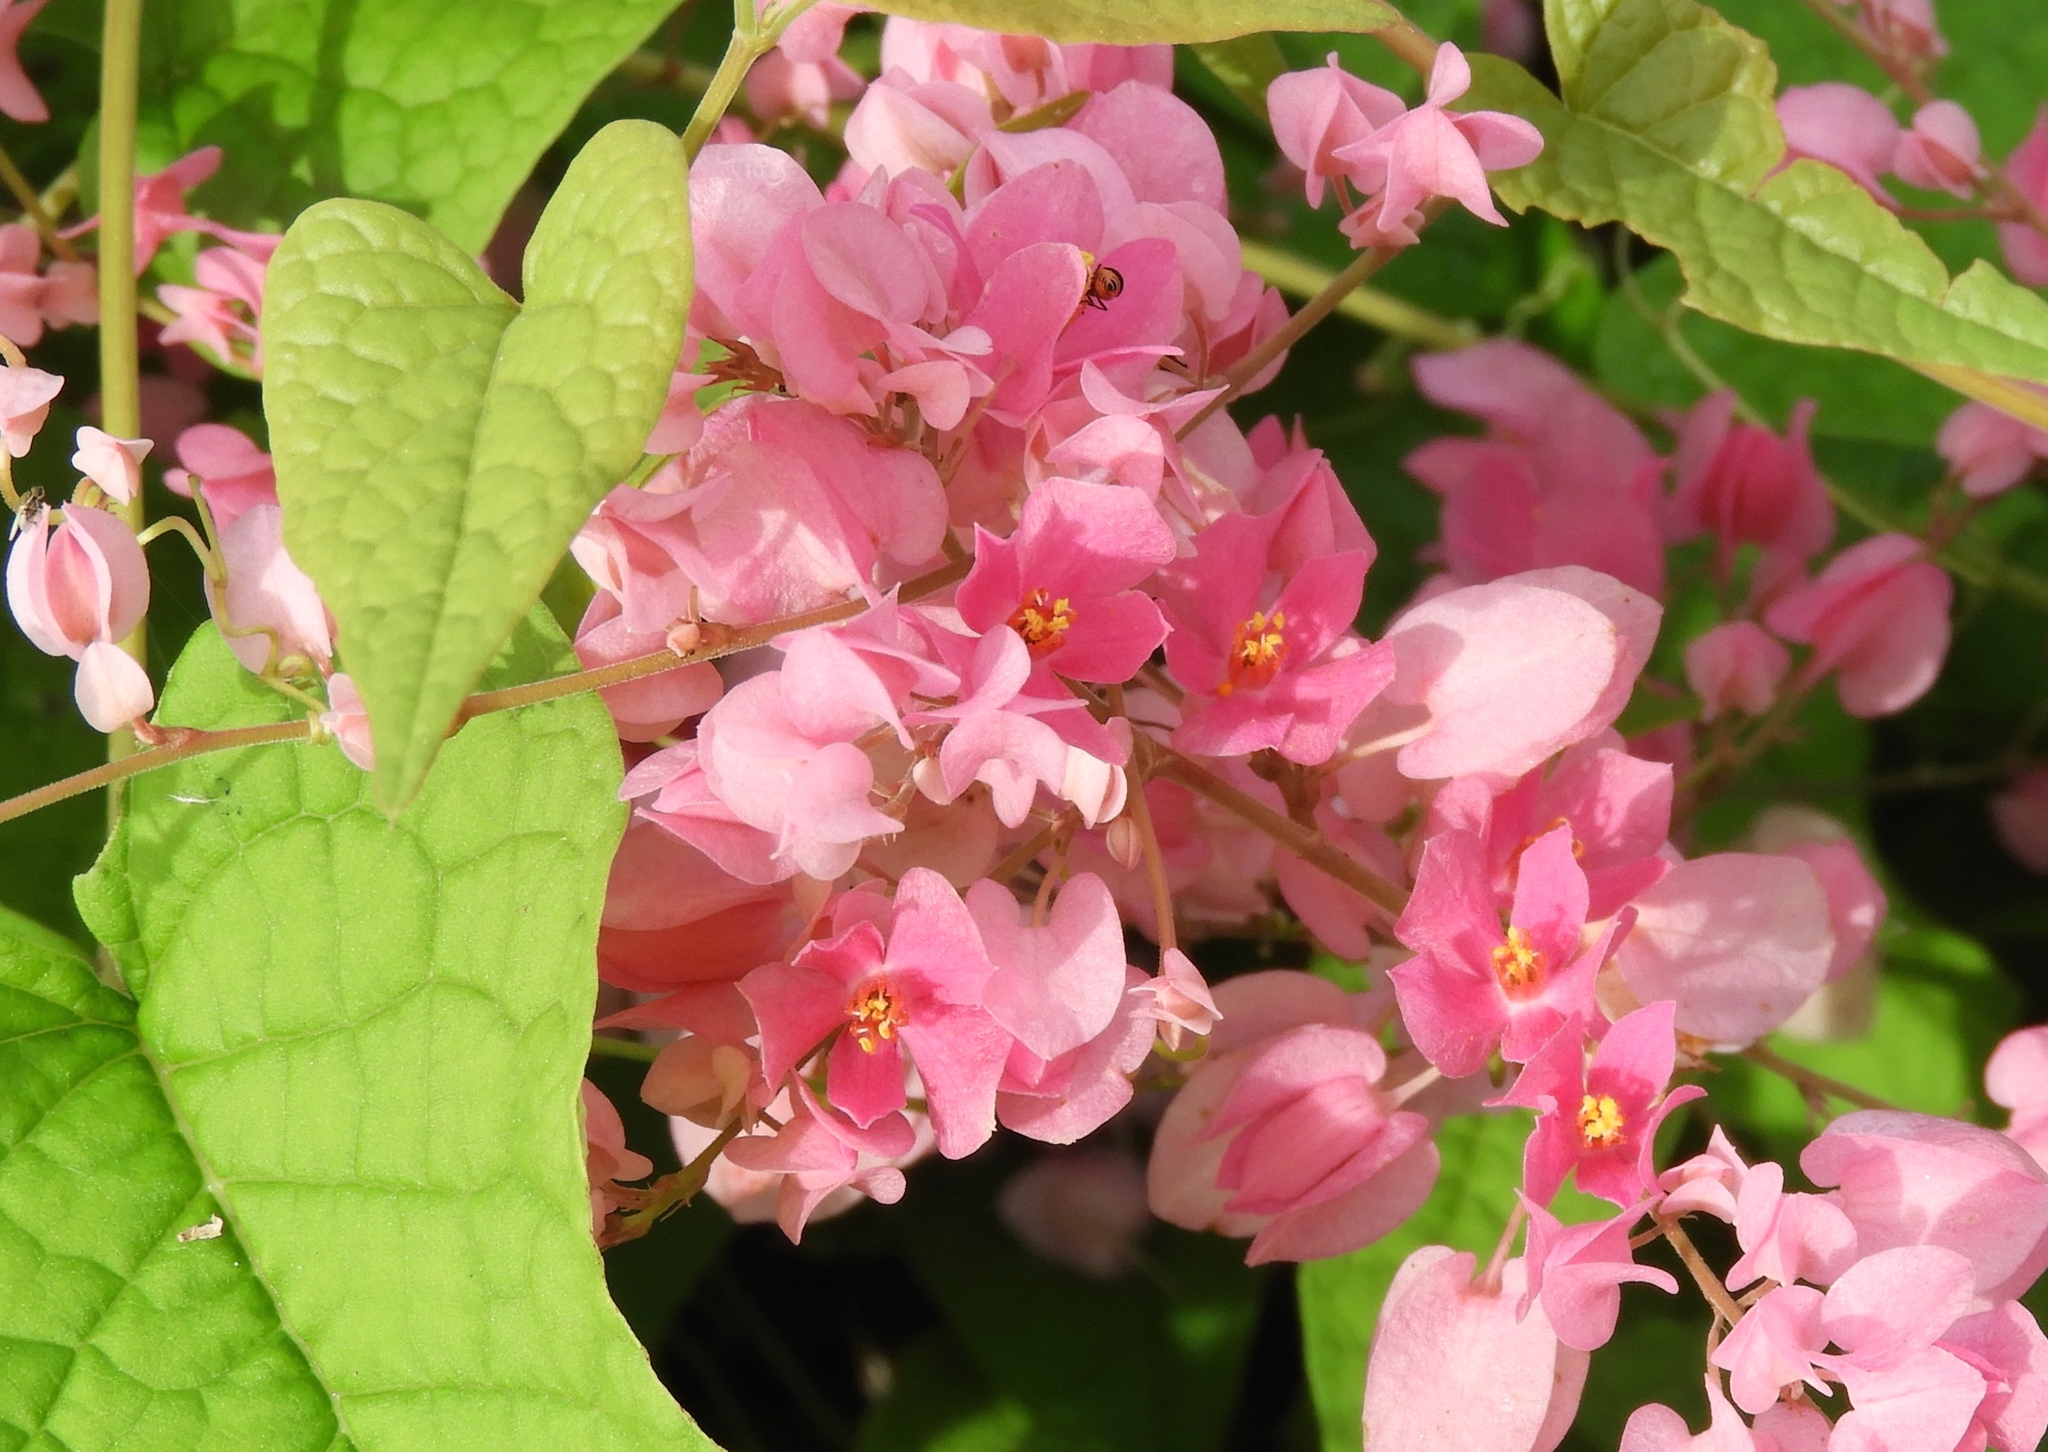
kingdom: Plantae
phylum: Tracheophyta
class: Magnoliopsida
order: Caryophyllales
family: Polygonaceae
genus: Antigonon
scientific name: Antigonon leptopus
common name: Coral vine
